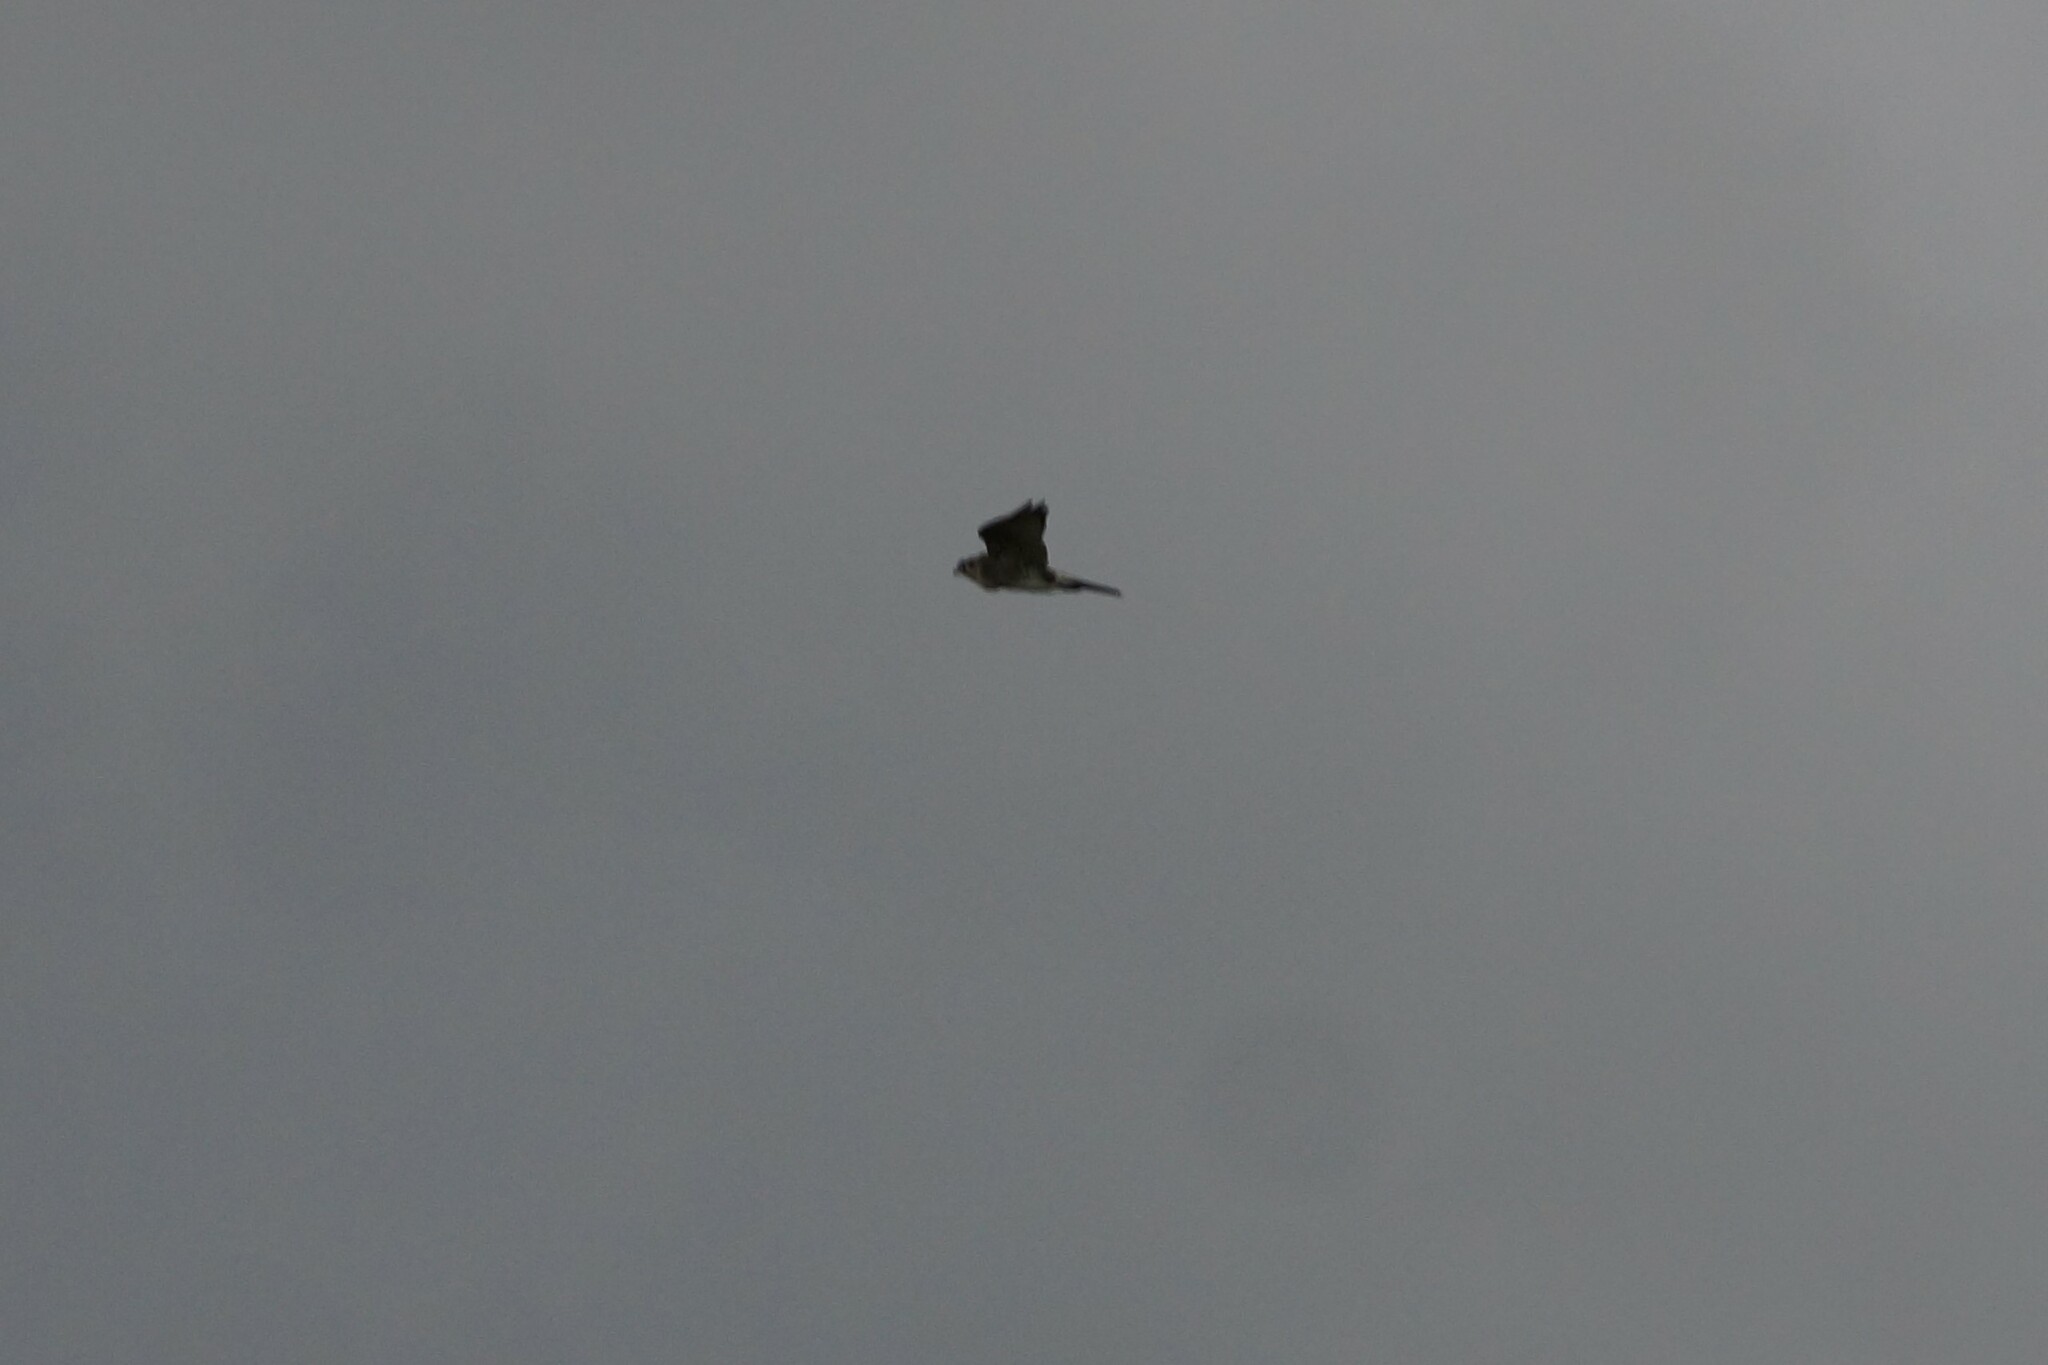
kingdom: Animalia
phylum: Chordata
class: Aves
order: Falconiformes
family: Falconidae
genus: Falco
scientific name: Falco berigora
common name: Brown falcon
